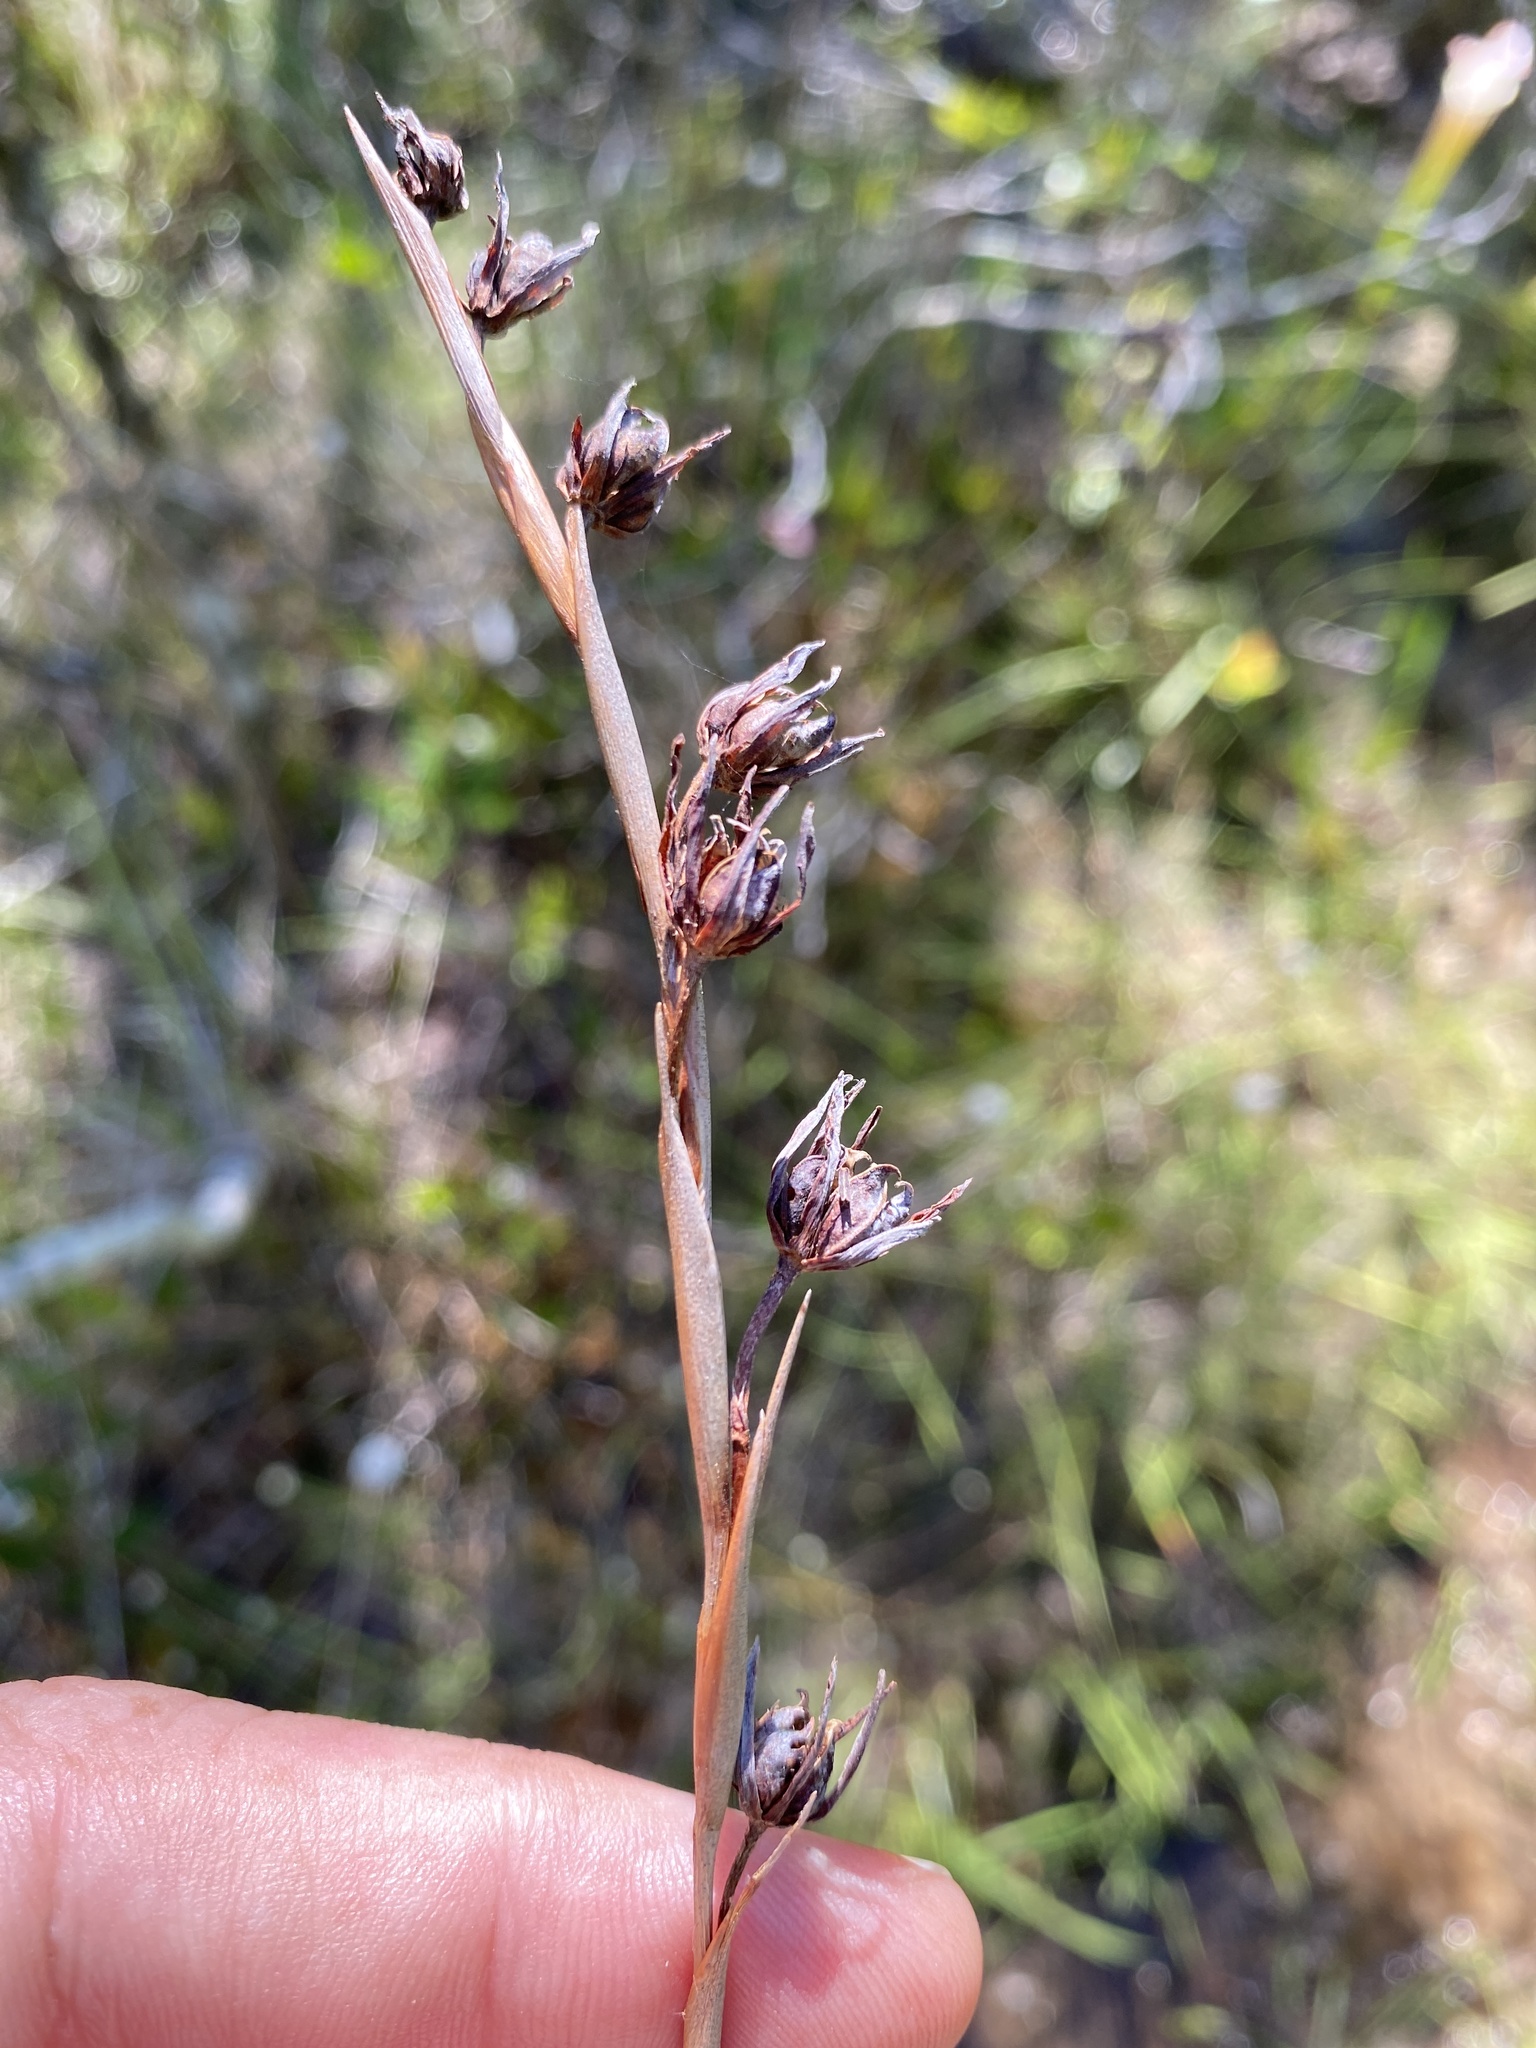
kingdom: Plantae
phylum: Tracheophyta
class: Liliopsida
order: Alismatales
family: Tofieldiaceae
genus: Pleea
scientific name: Pleea tenuifolia
